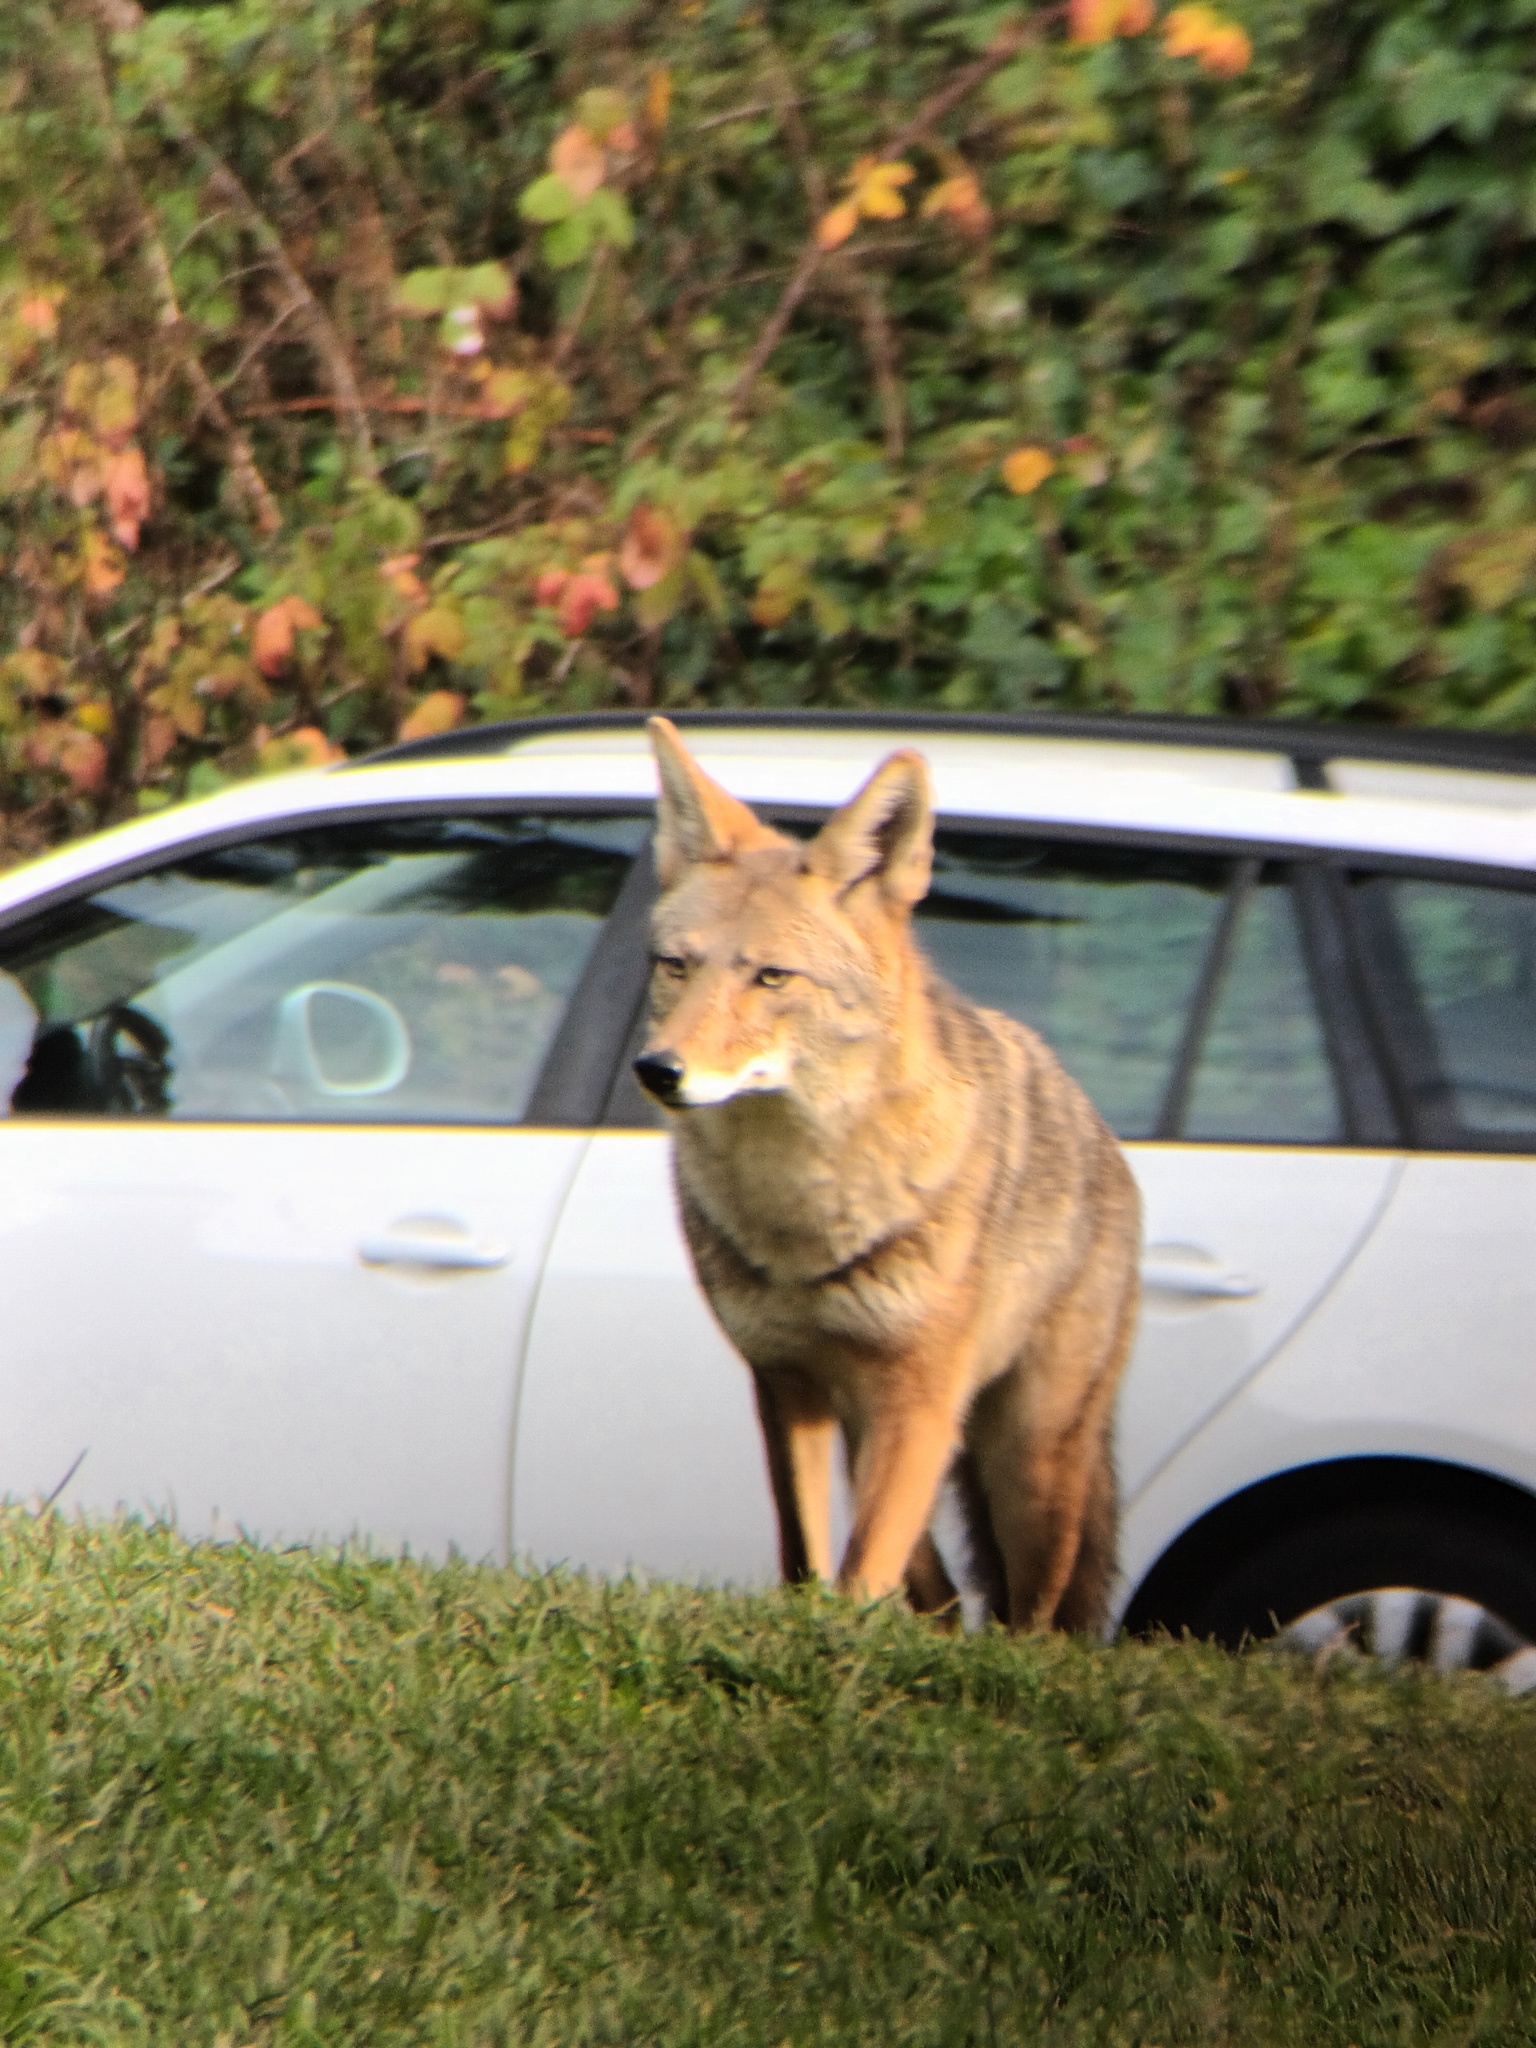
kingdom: Animalia
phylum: Chordata
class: Mammalia
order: Carnivora
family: Canidae
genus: Canis
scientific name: Canis latrans
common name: Coyote
